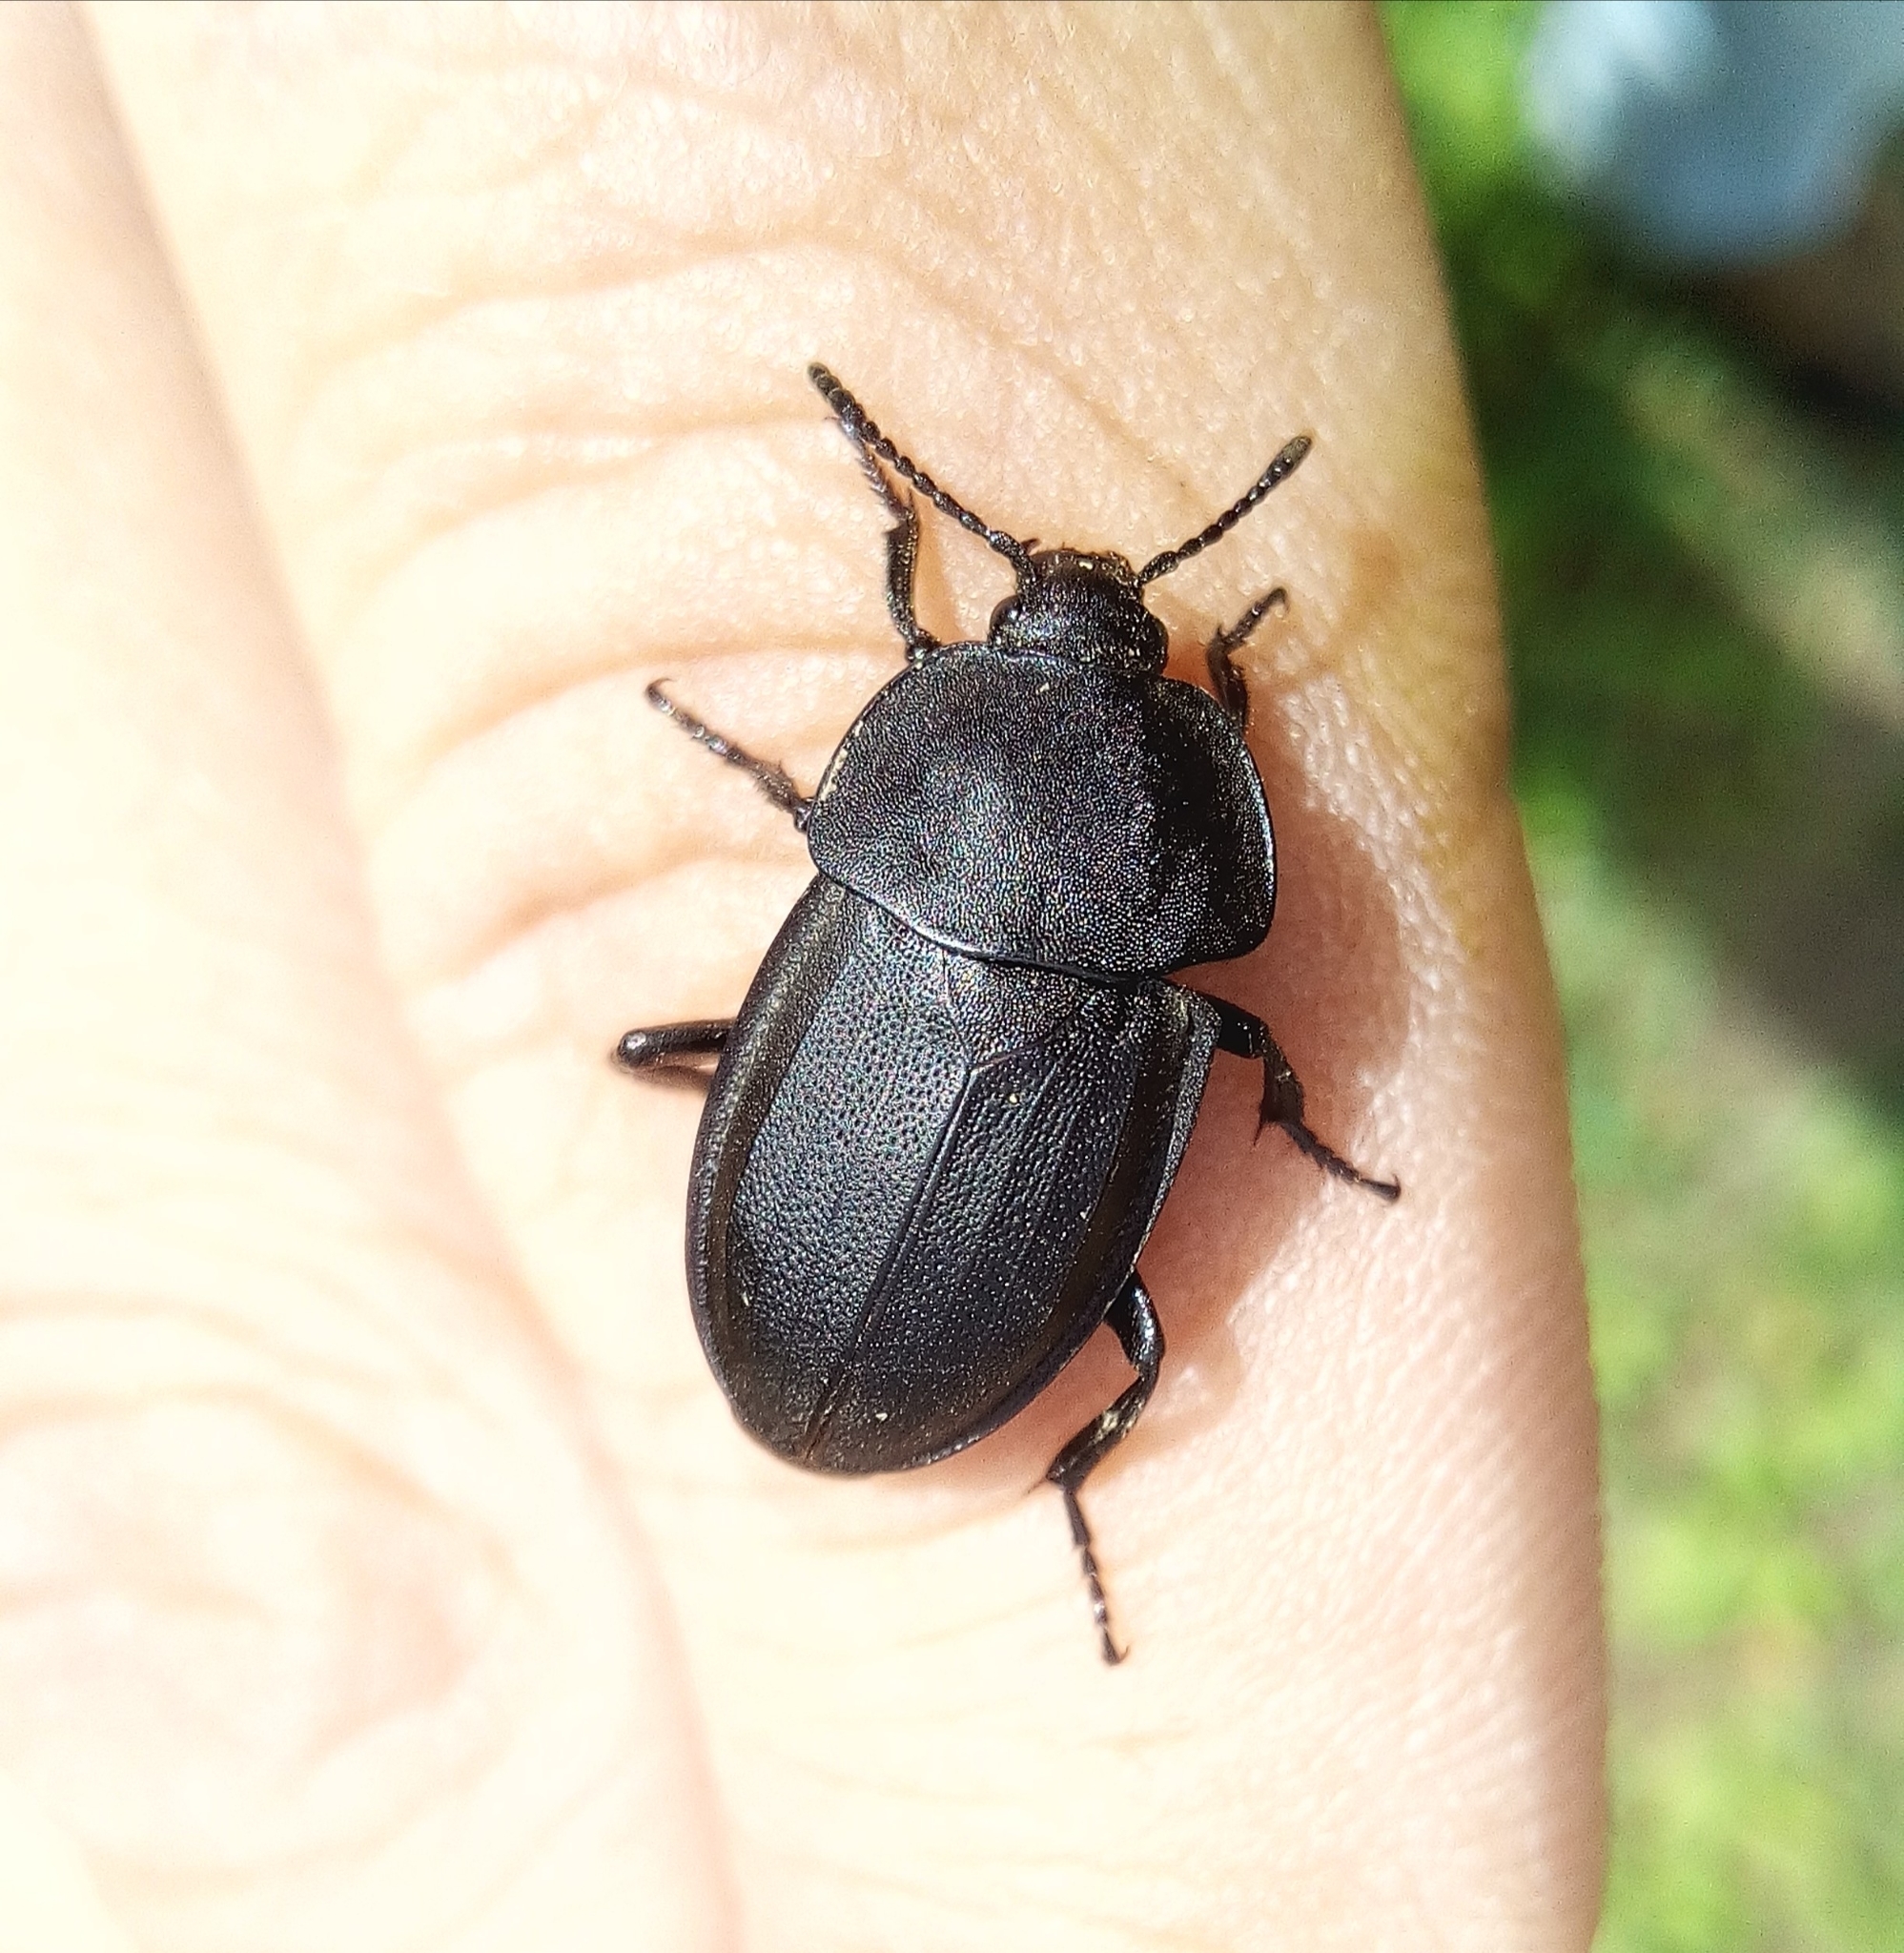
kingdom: Animalia
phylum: Arthropoda
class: Insecta
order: Coleoptera
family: Staphylinidae
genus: Silpha
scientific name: Silpha obscura
